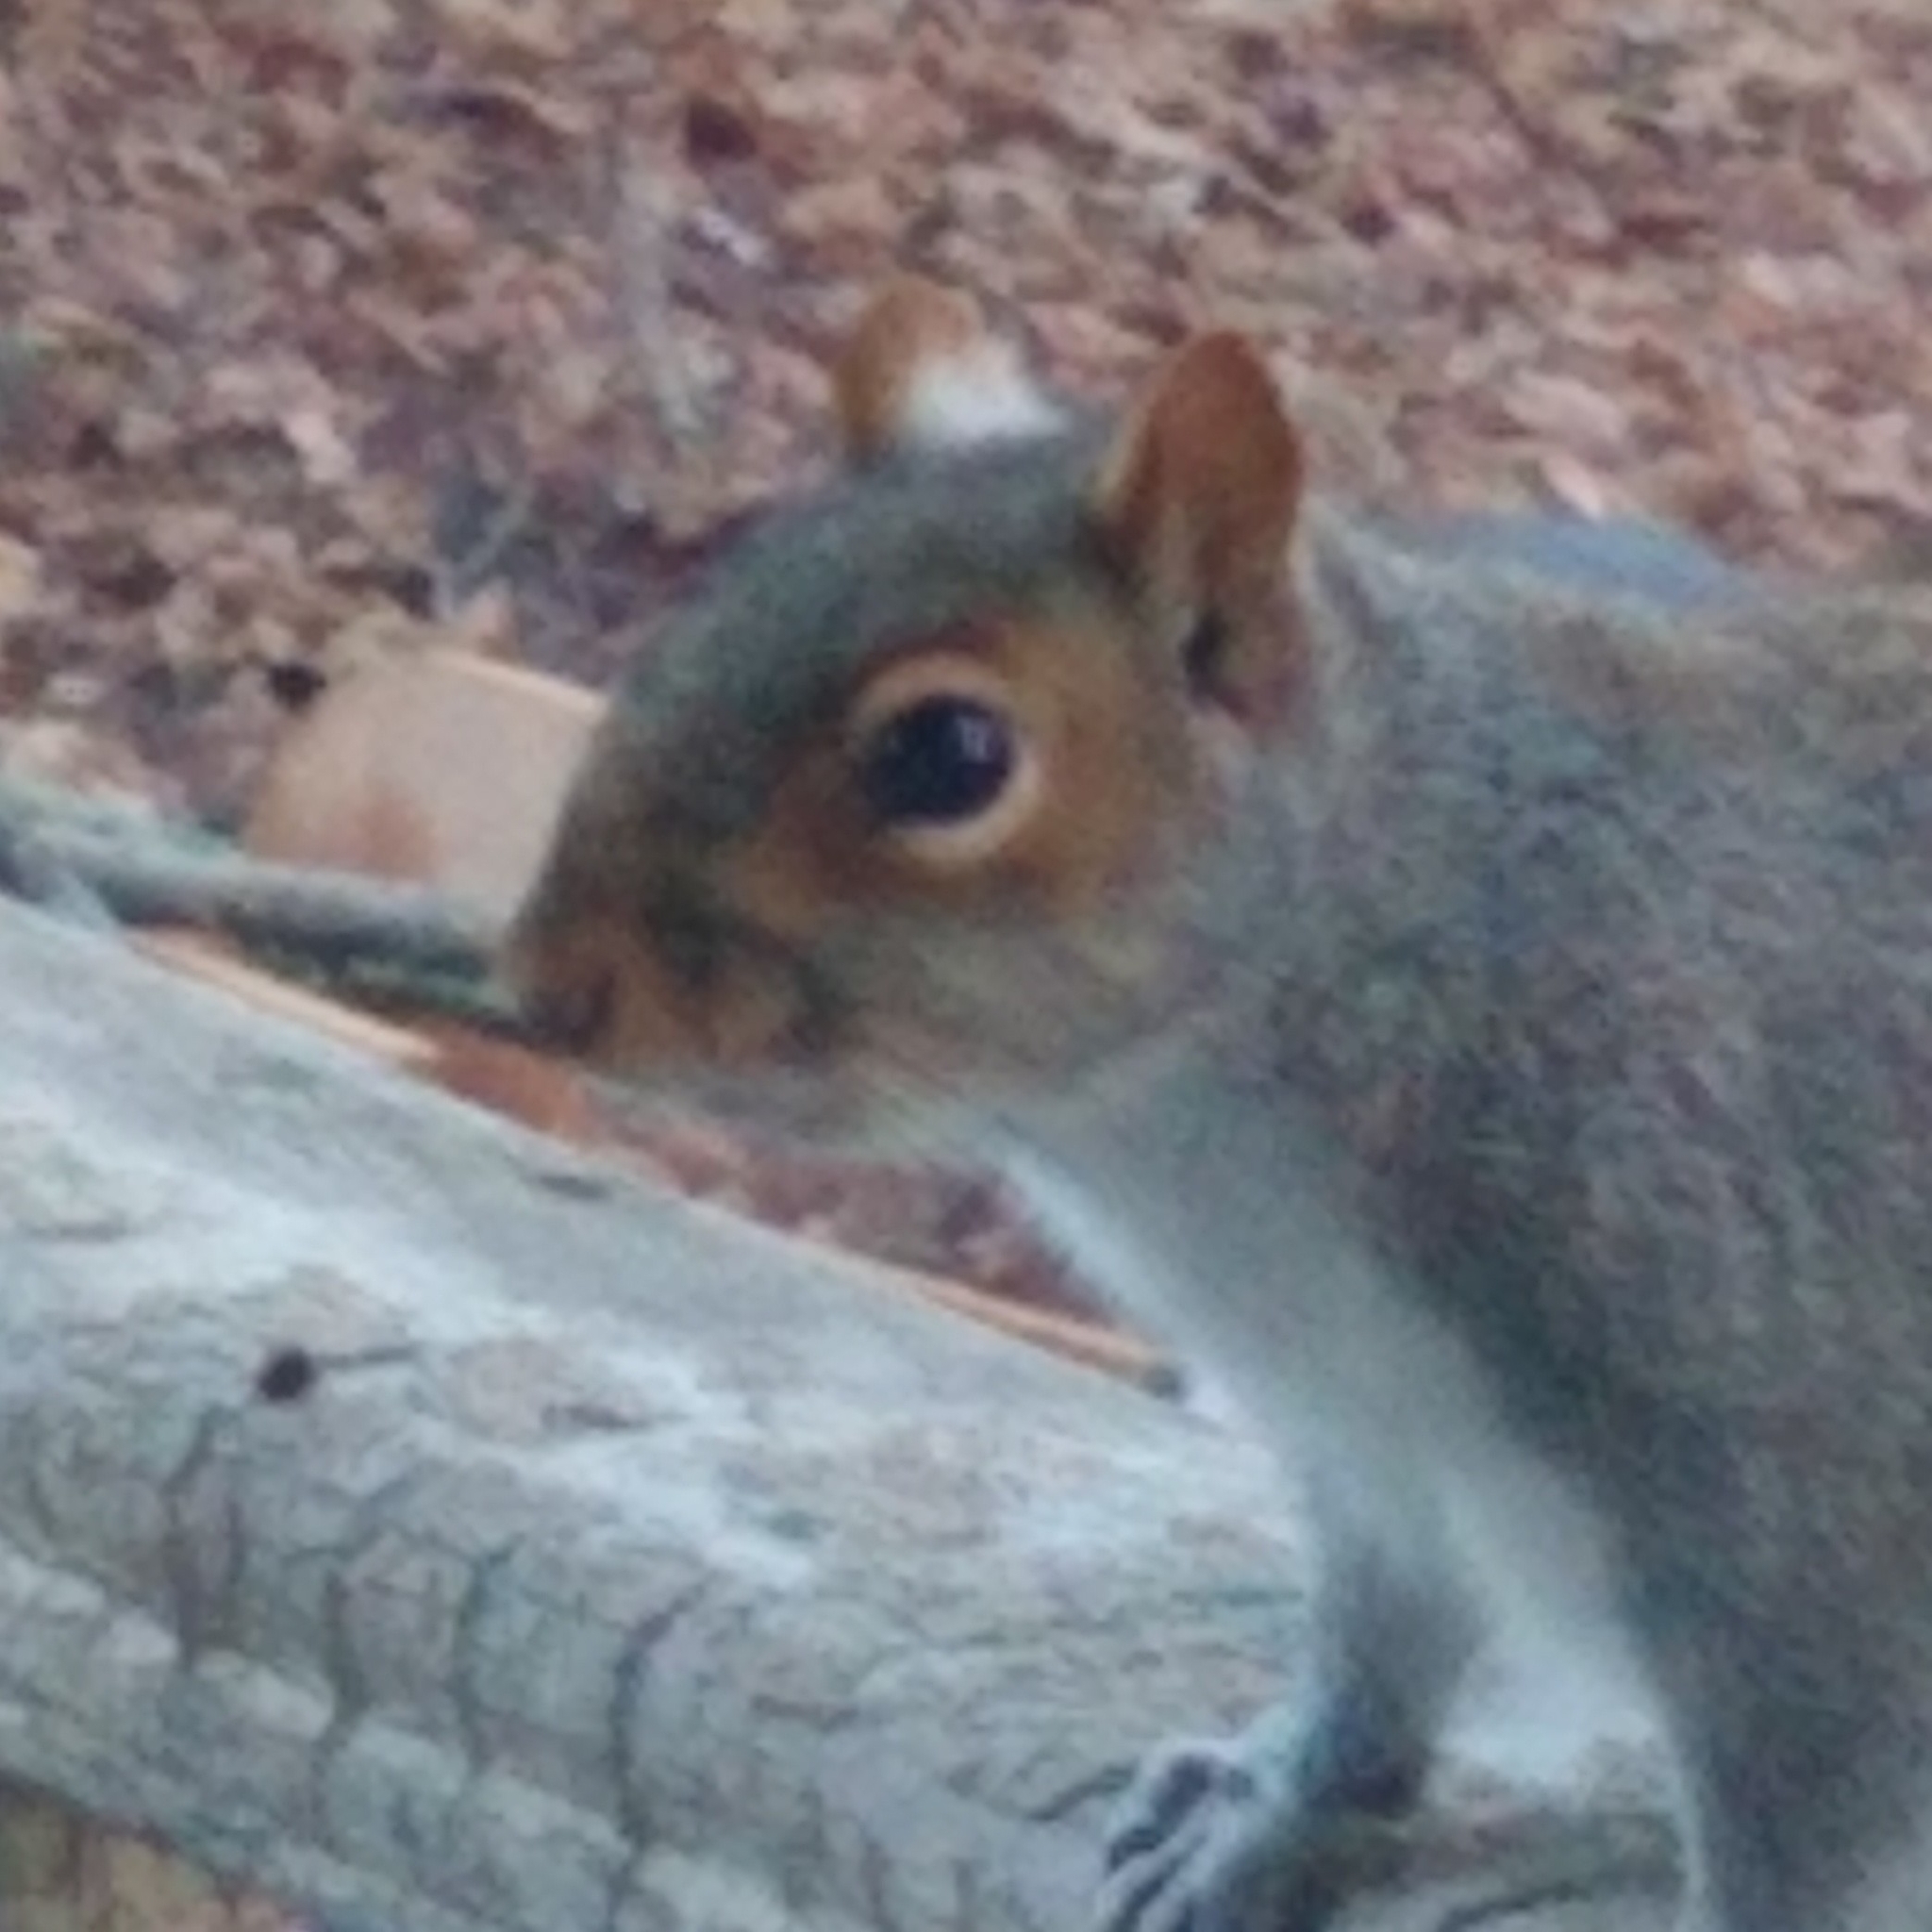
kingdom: Animalia
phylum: Chordata
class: Mammalia
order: Rodentia
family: Sciuridae
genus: Sciurus
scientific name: Sciurus carolinensis
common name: Eastern gray squirrel
